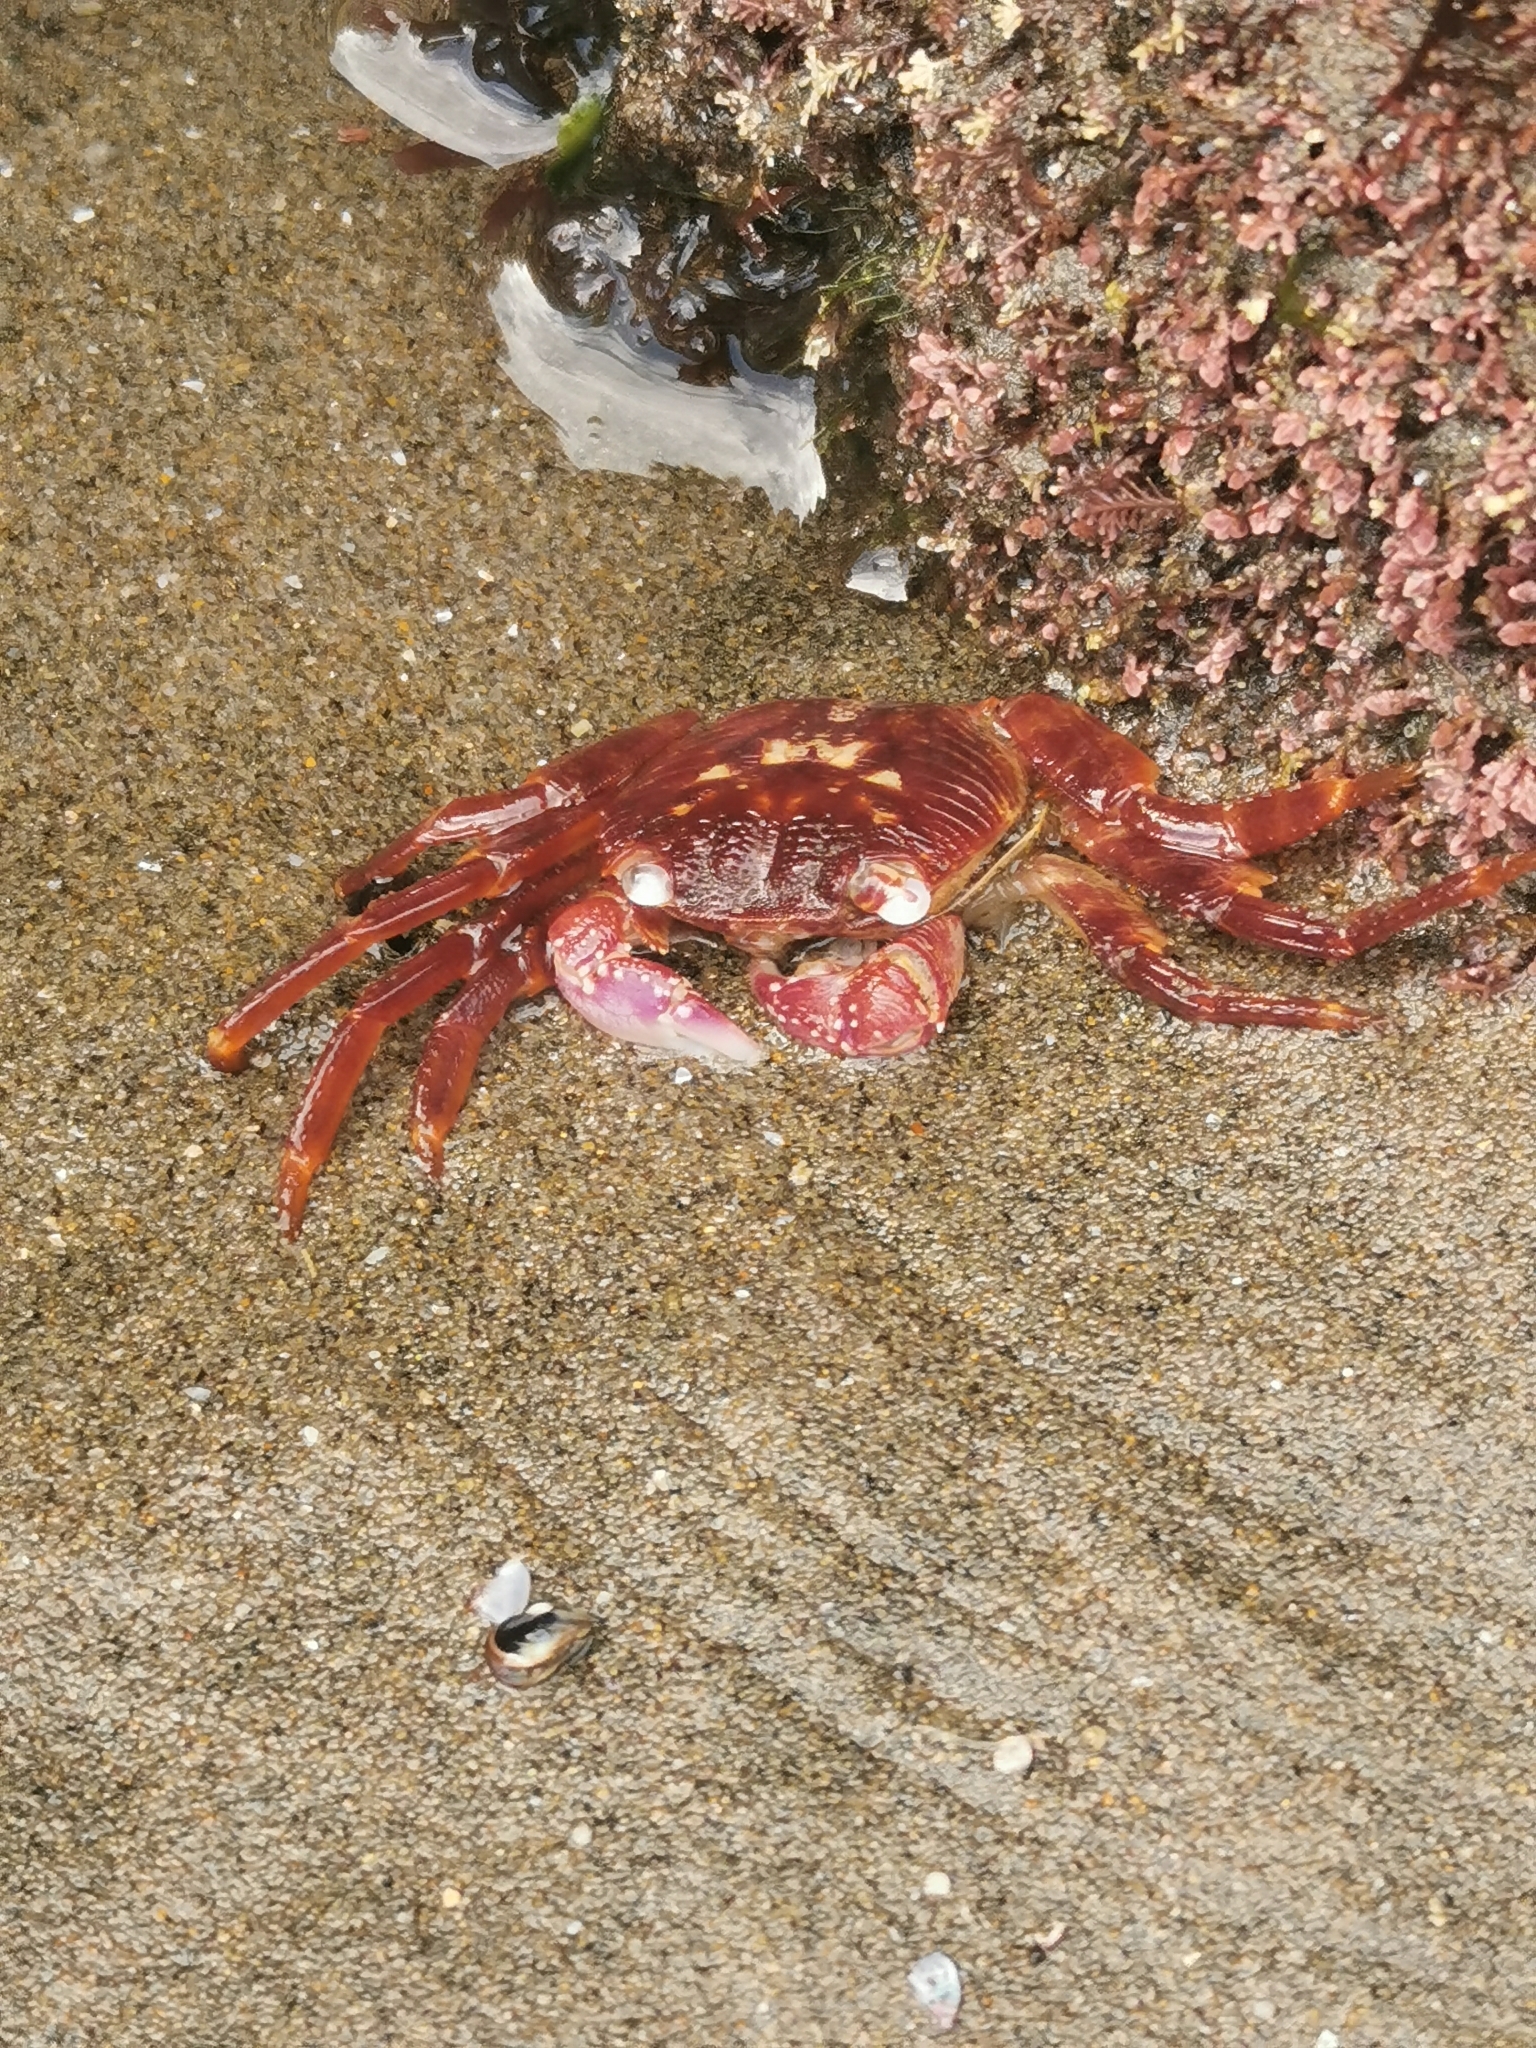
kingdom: Animalia
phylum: Arthropoda
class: Malacostraca
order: Decapoda
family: Grapsidae
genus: Leptograpsus
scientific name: Leptograpsus variegatus
